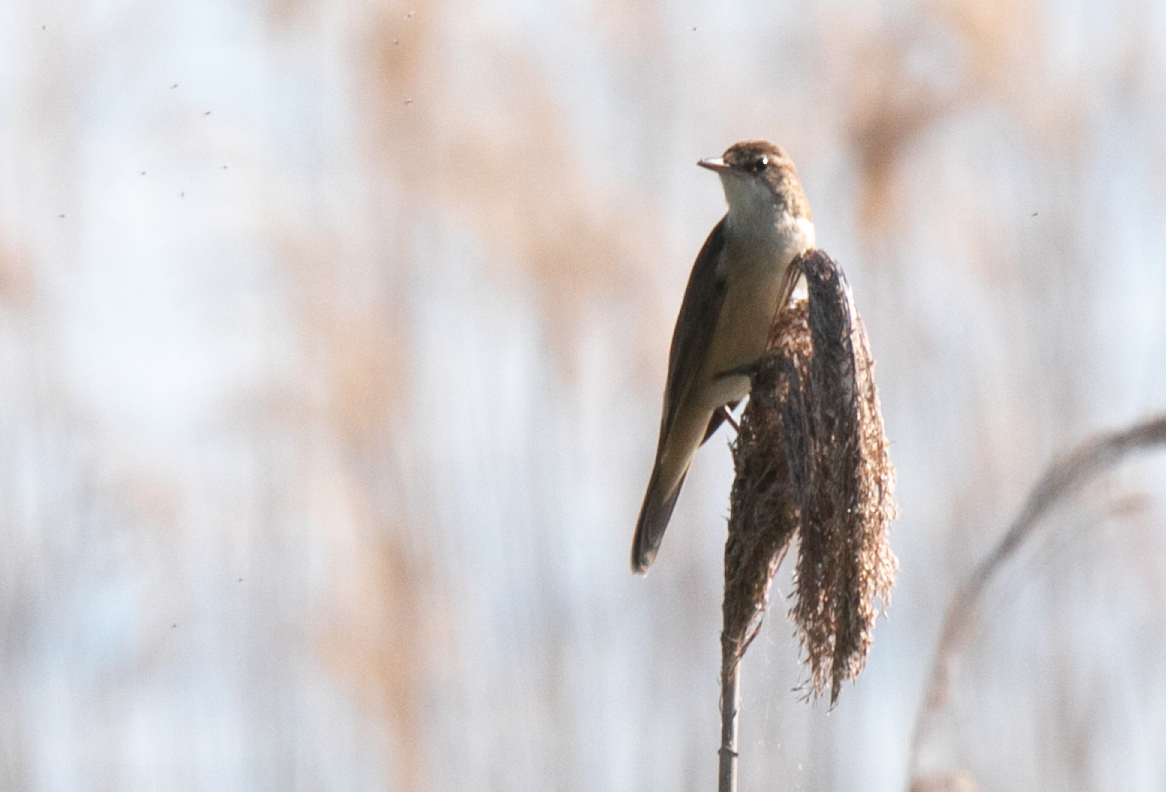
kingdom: Animalia
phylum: Chordata
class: Aves
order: Passeriformes
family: Acrocephalidae
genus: Acrocephalus
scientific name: Acrocephalus arundinaceus
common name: Great reed warbler
